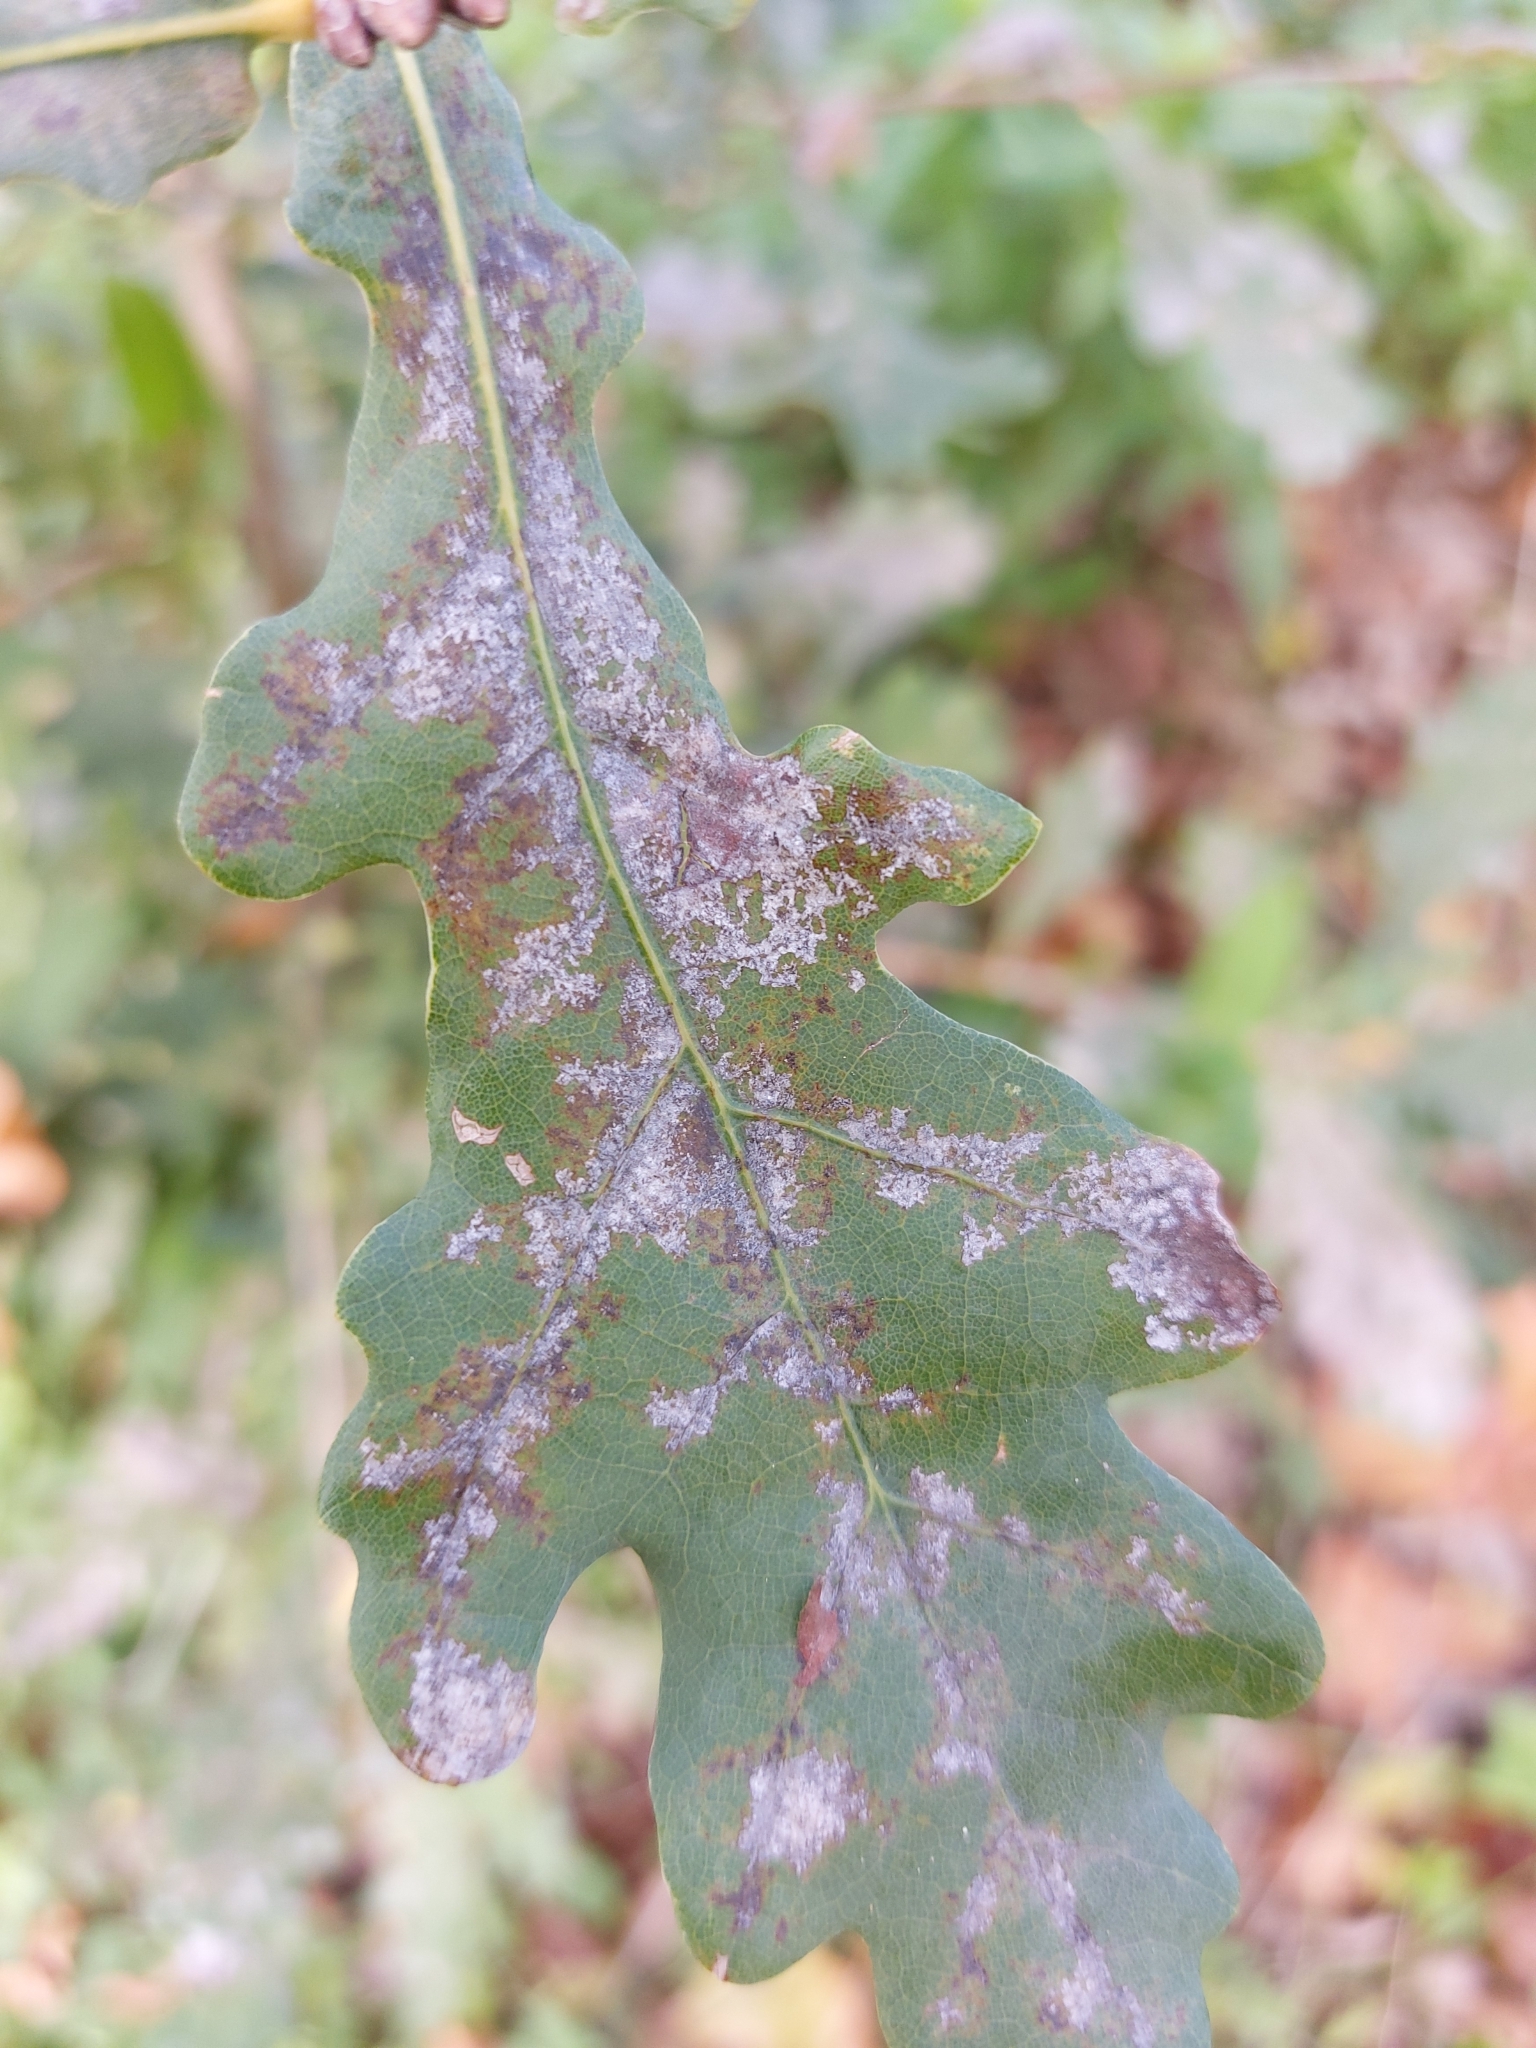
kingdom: Fungi
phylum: Ascomycota
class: Leotiomycetes
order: Helotiales
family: Erysiphaceae
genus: Erysiphe
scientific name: Erysiphe
